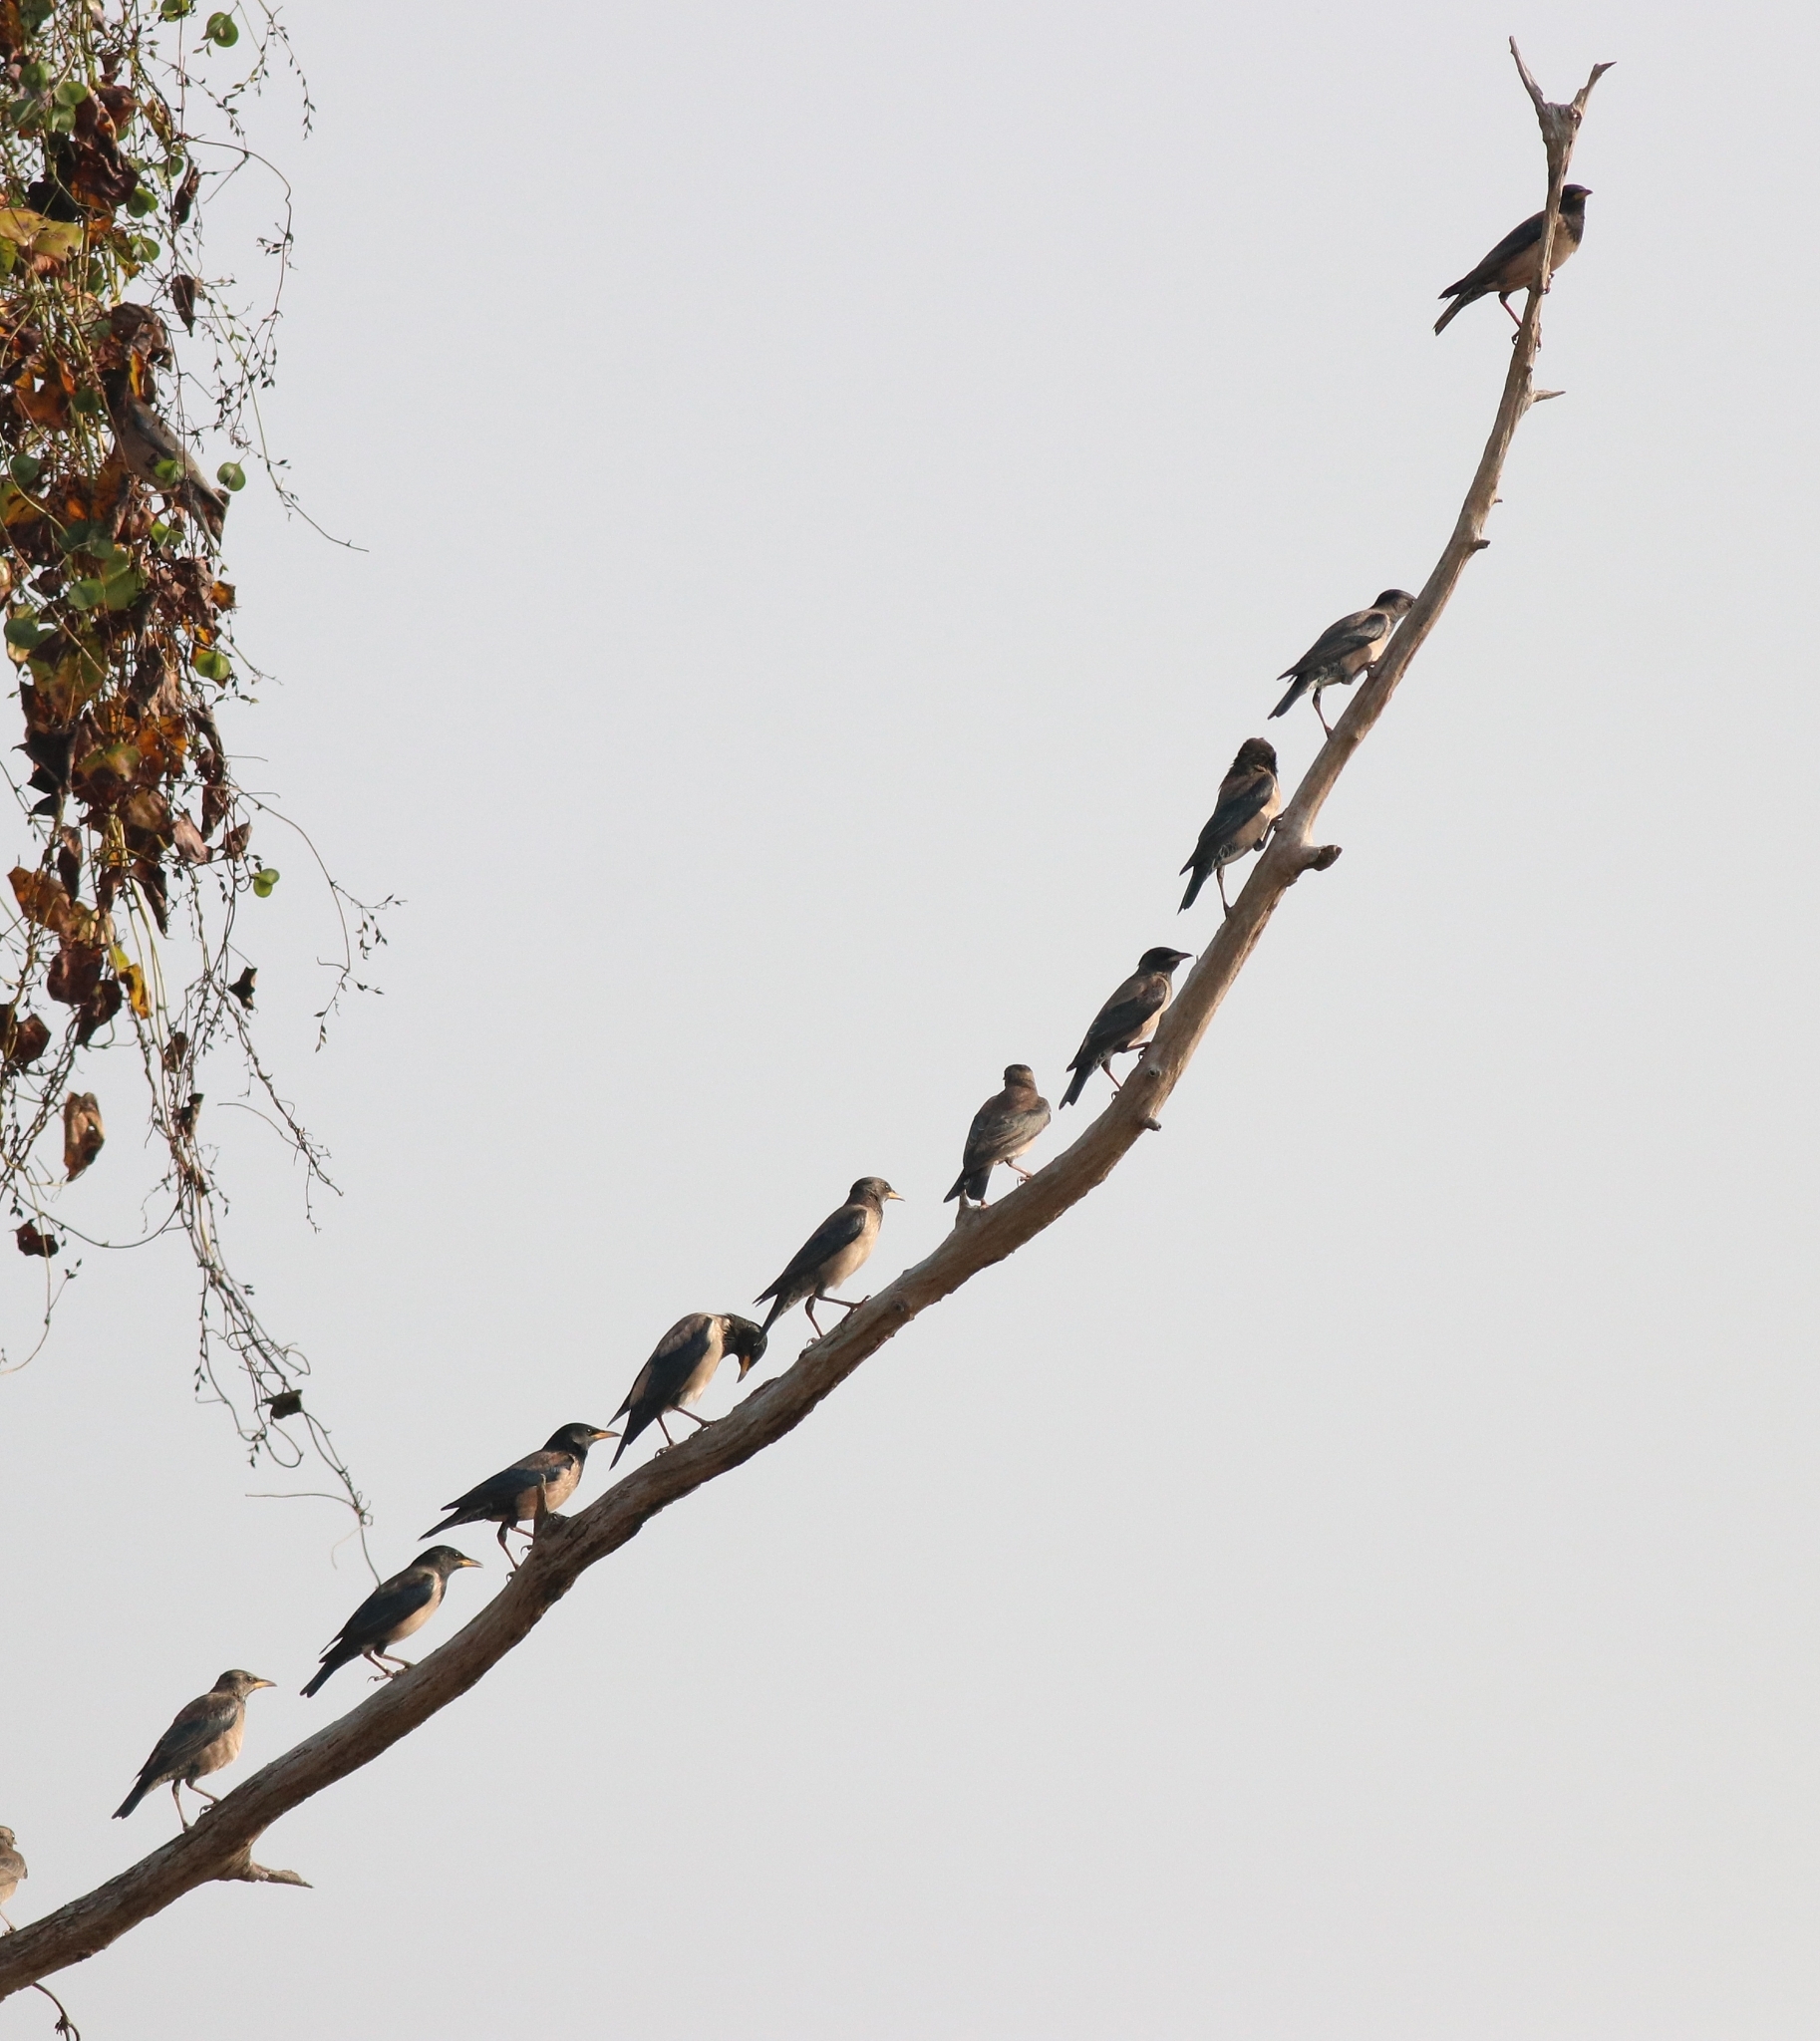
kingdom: Animalia
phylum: Chordata
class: Aves
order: Passeriformes
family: Sturnidae
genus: Pastor
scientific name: Pastor roseus
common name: Rosy starling
